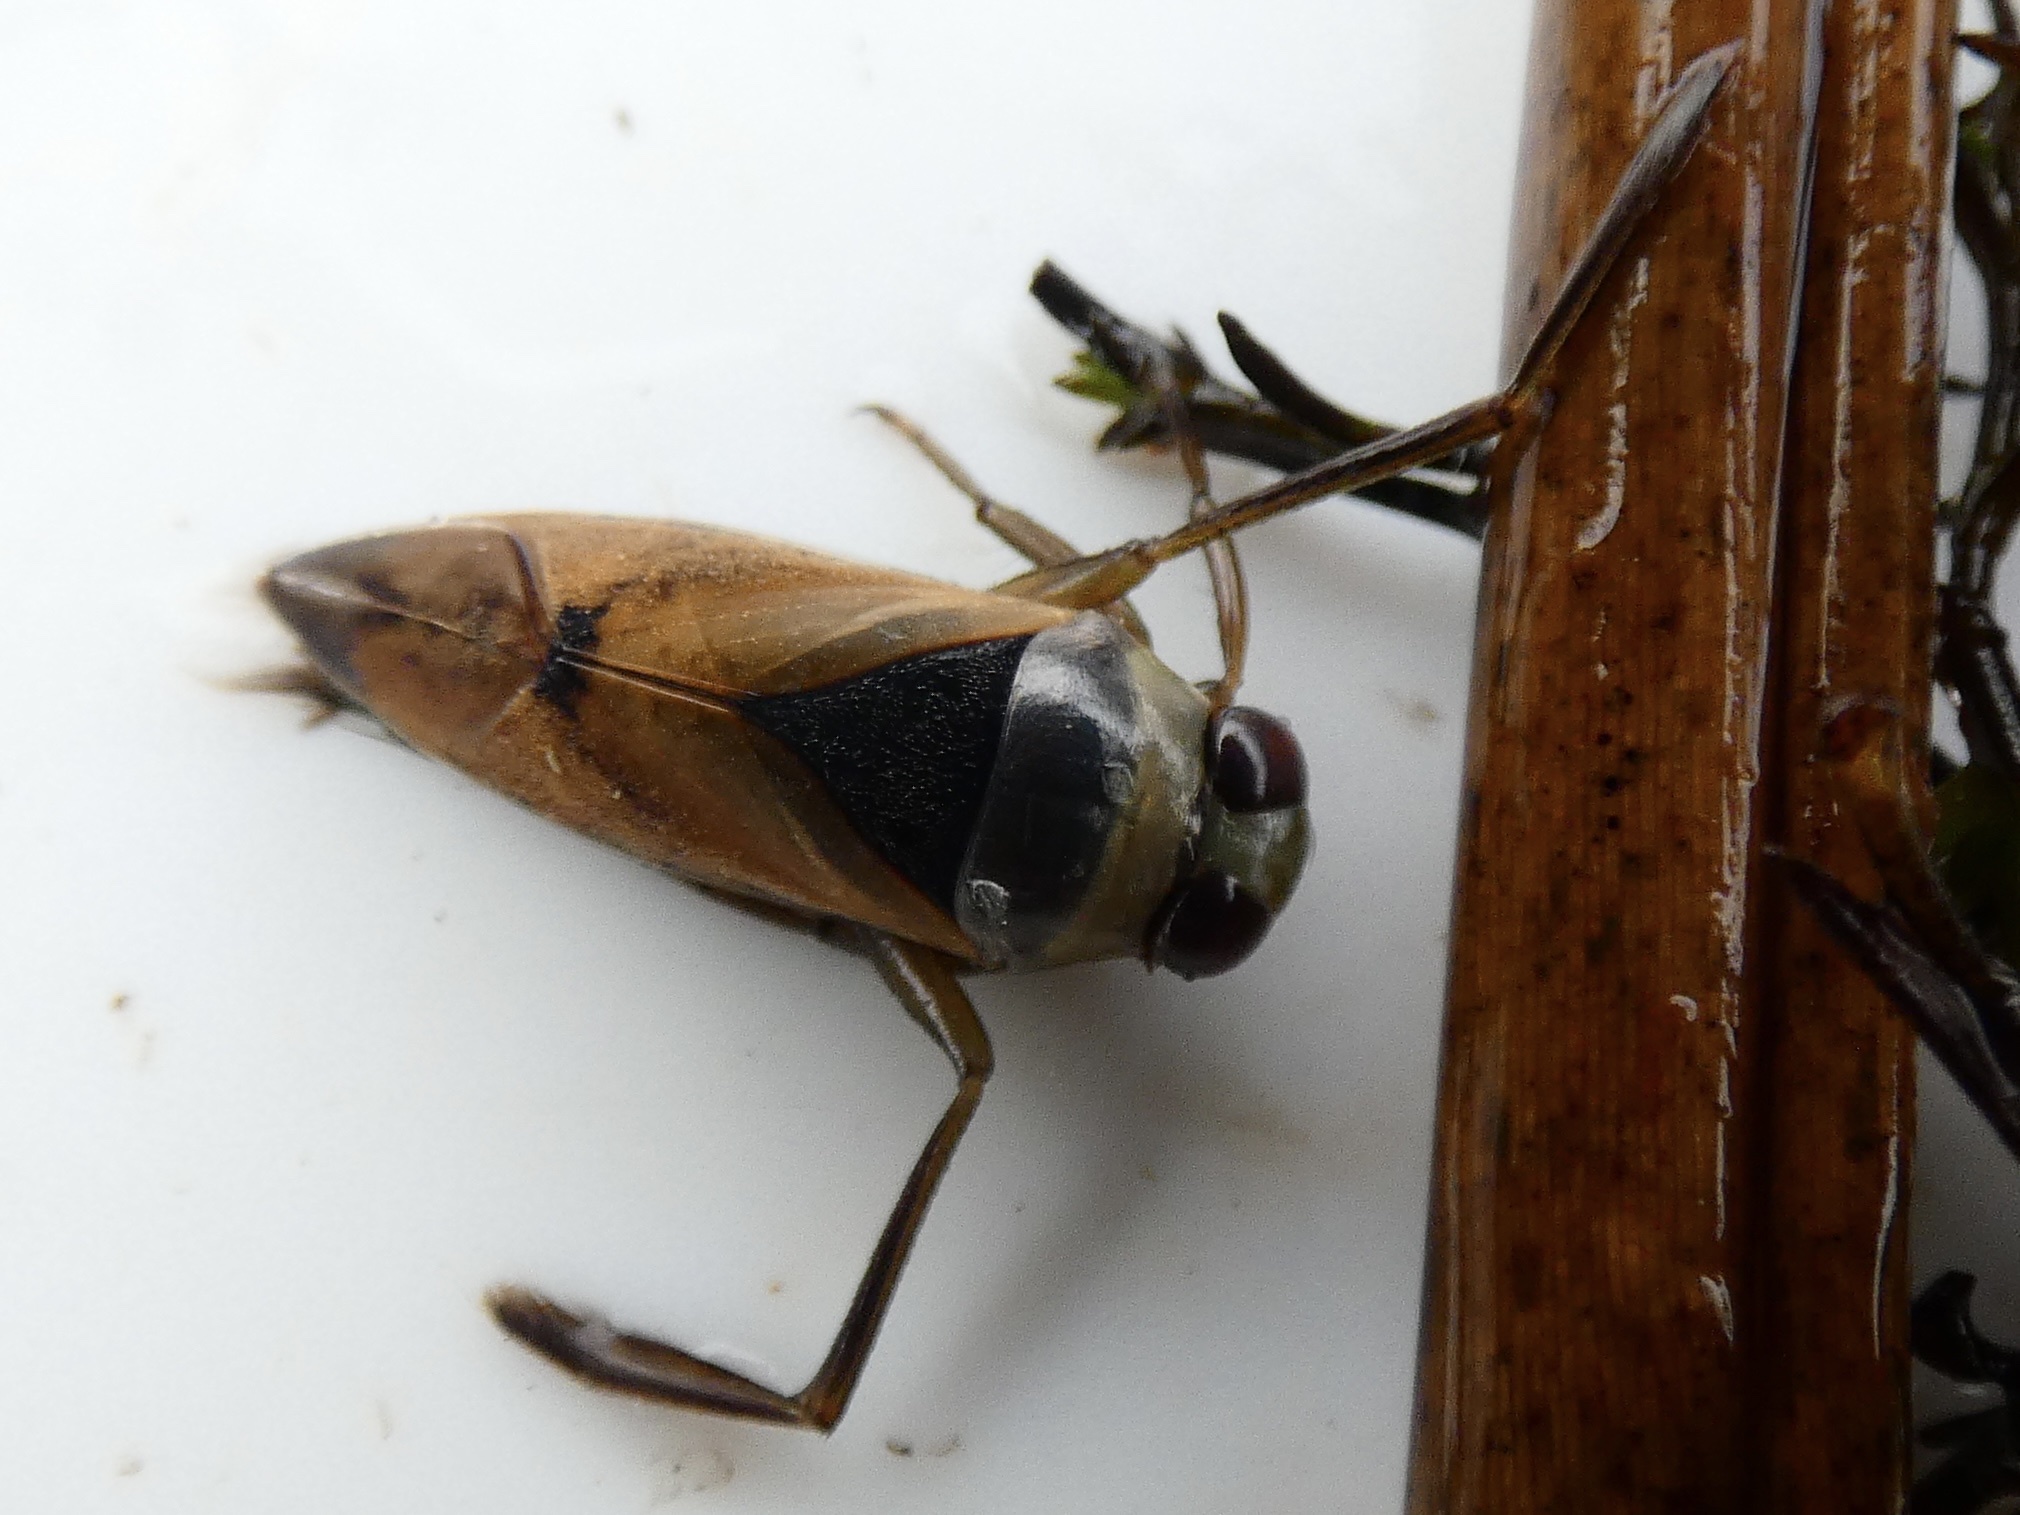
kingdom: Animalia
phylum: Arthropoda
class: Insecta
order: Hemiptera
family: Notonectidae
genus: Notonecta
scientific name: Notonecta glauca
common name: Common water-boatman
